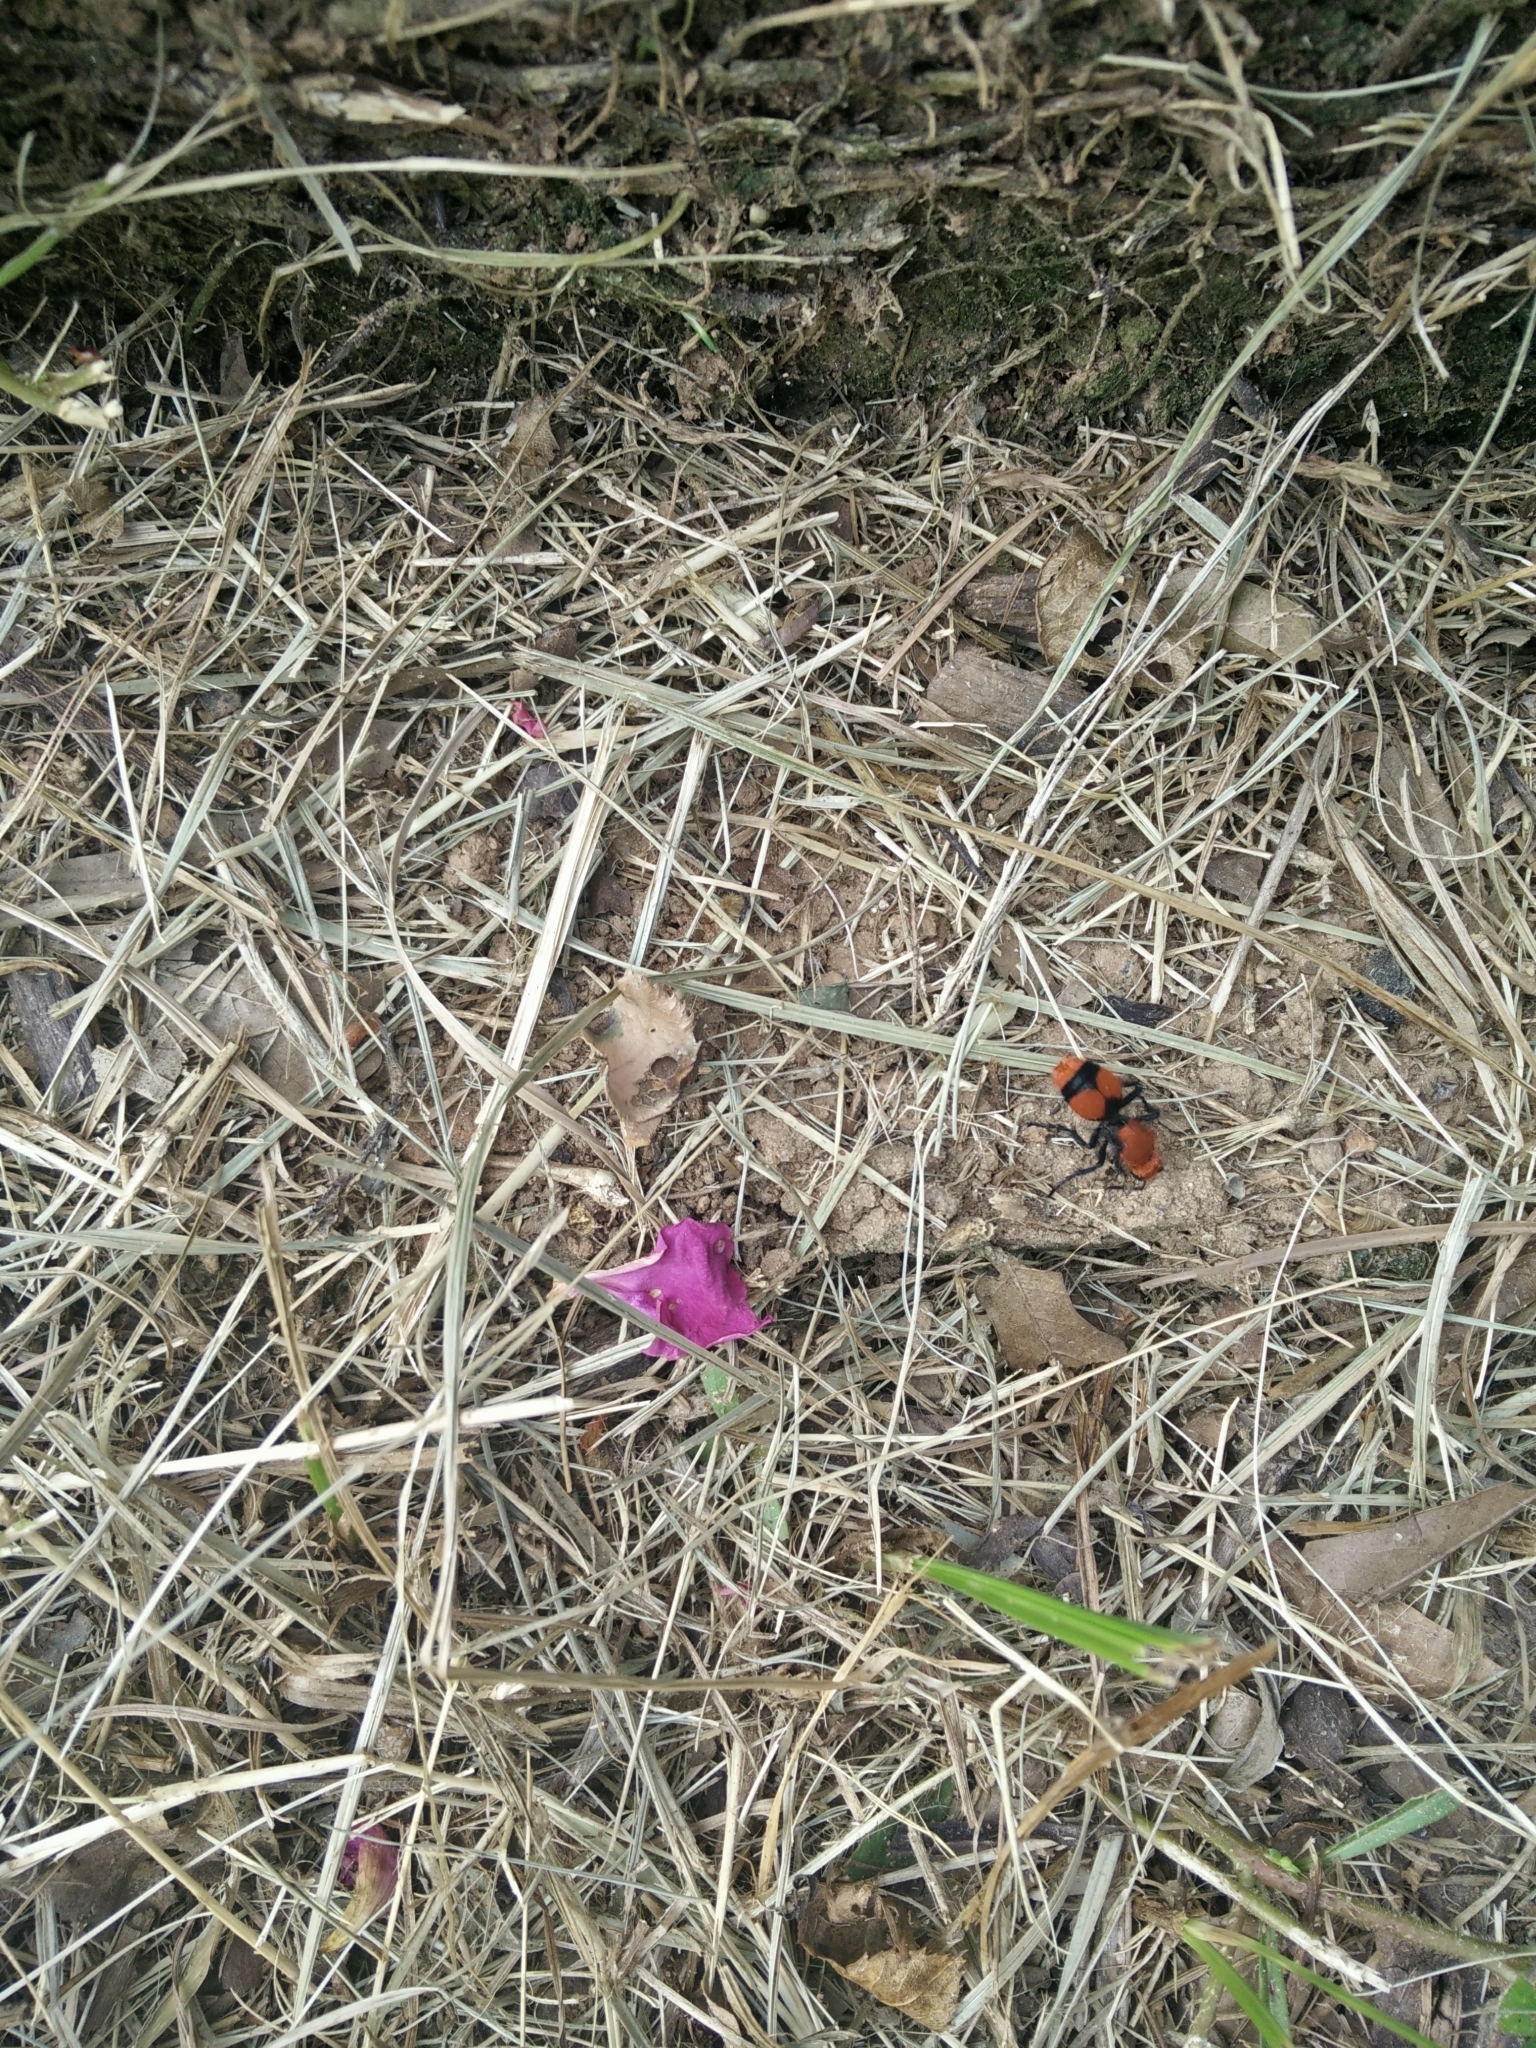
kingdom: Animalia
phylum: Arthropoda
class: Insecta
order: Hymenoptera
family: Mutillidae
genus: Dasymutilla
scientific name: Dasymutilla occidentalis
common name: Common eastern velvet ant
